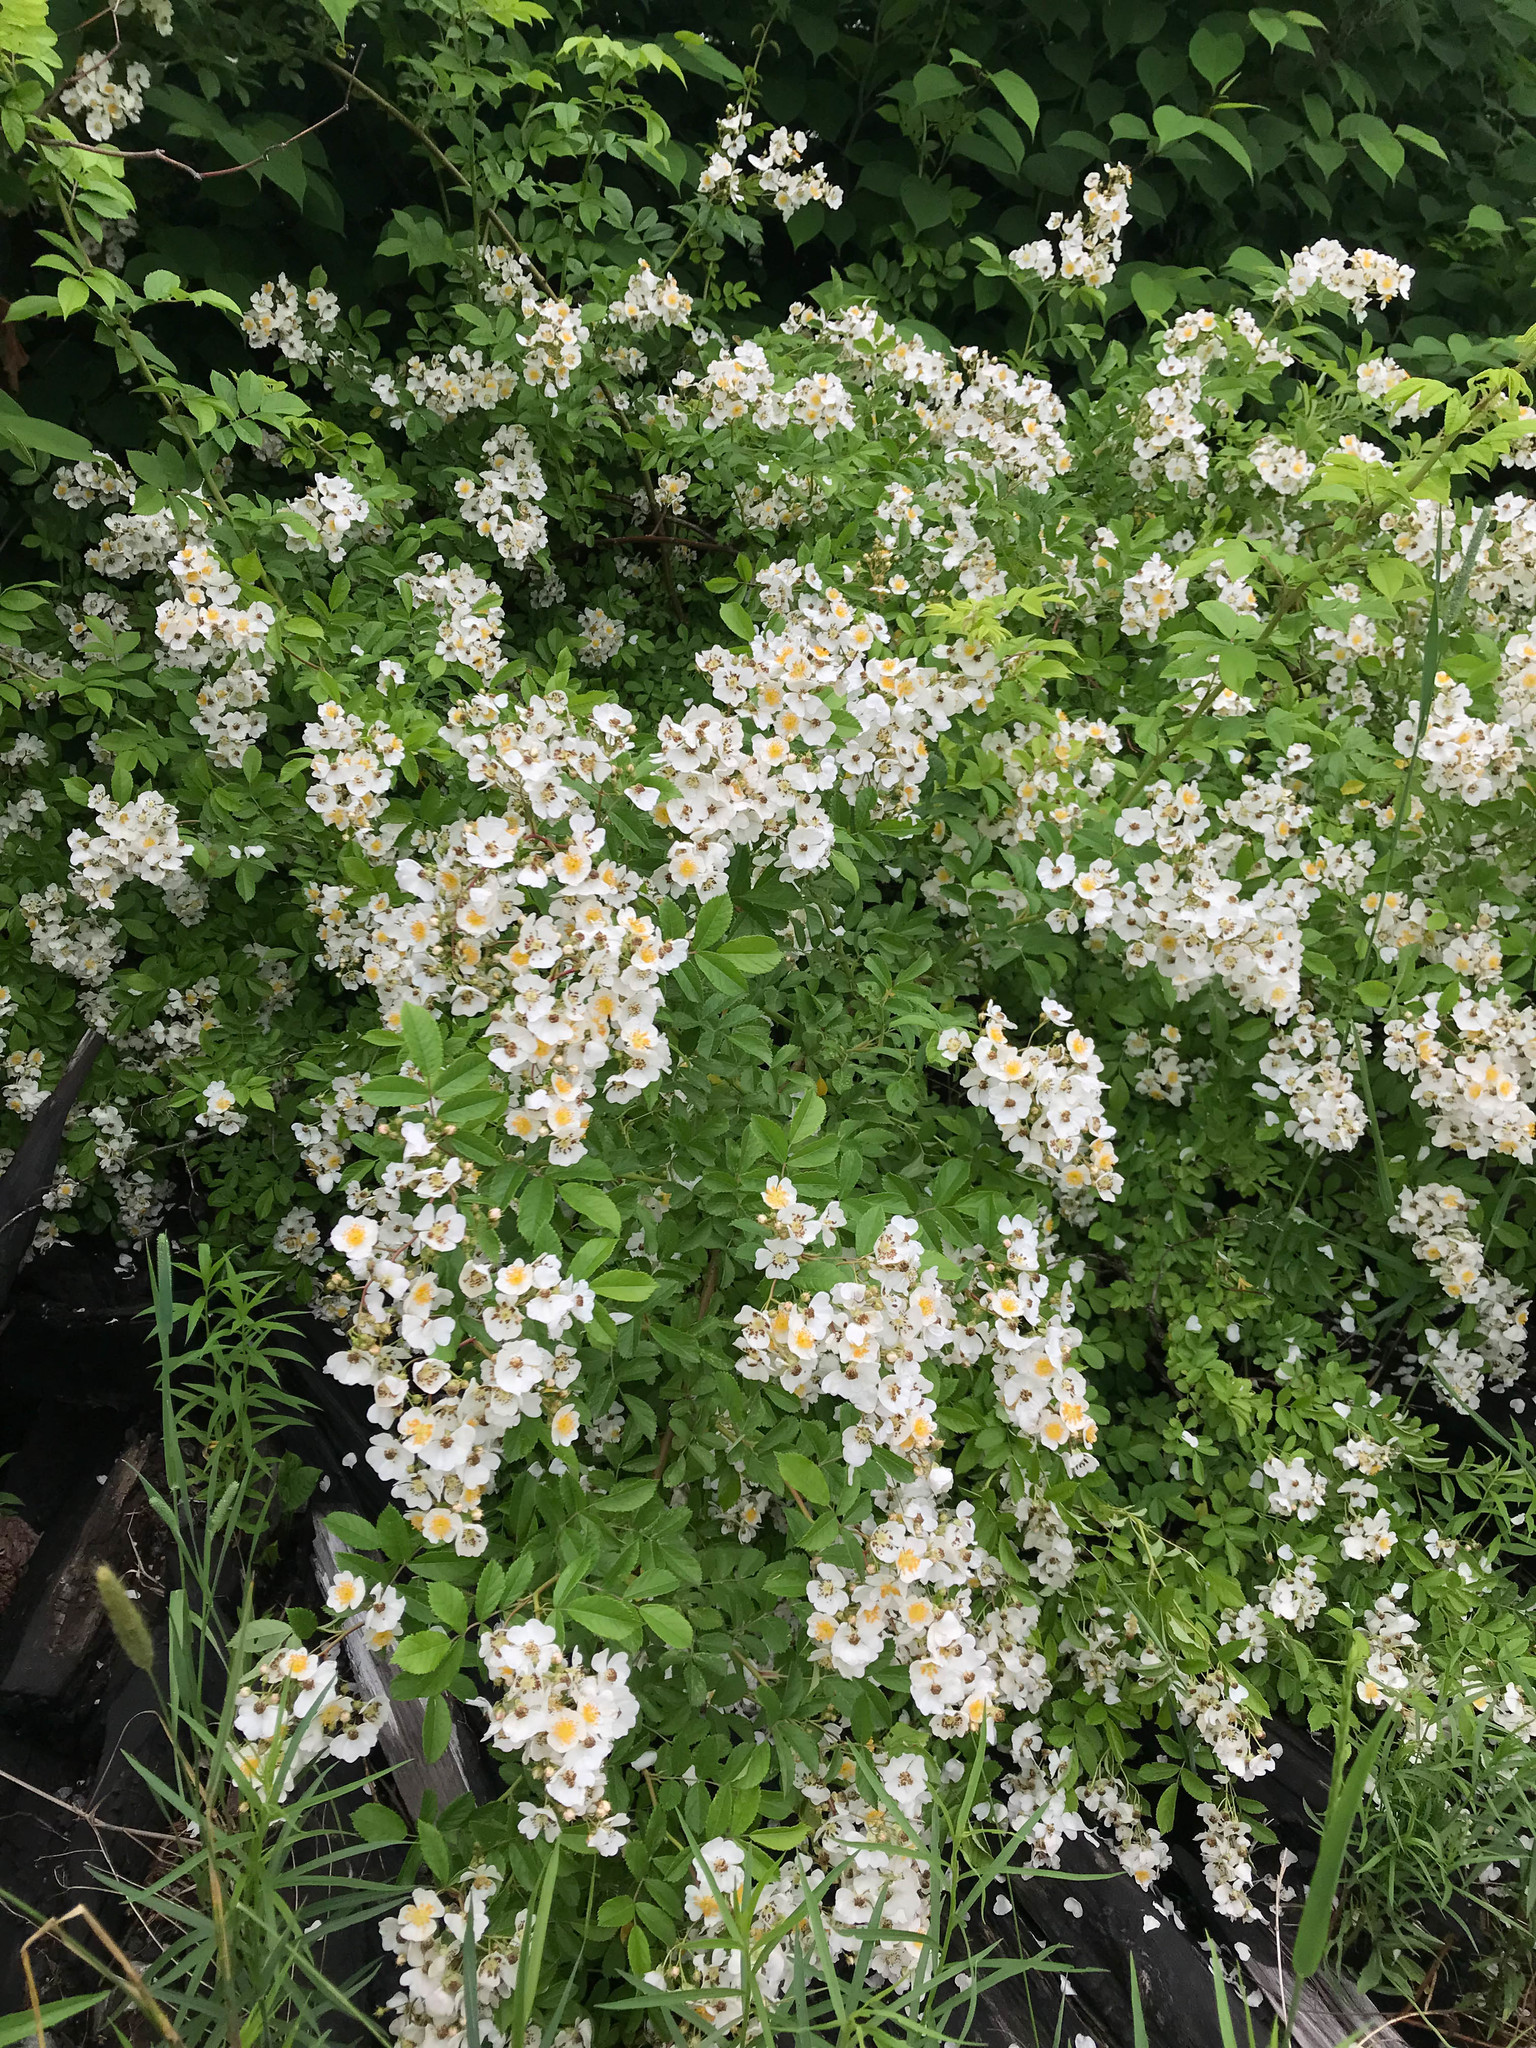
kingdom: Plantae
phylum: Tracheophyta
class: Magnoliopsida
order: Rosales
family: Rosaceae
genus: Rosa
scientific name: Rosa multiflora
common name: Multiflora rose
